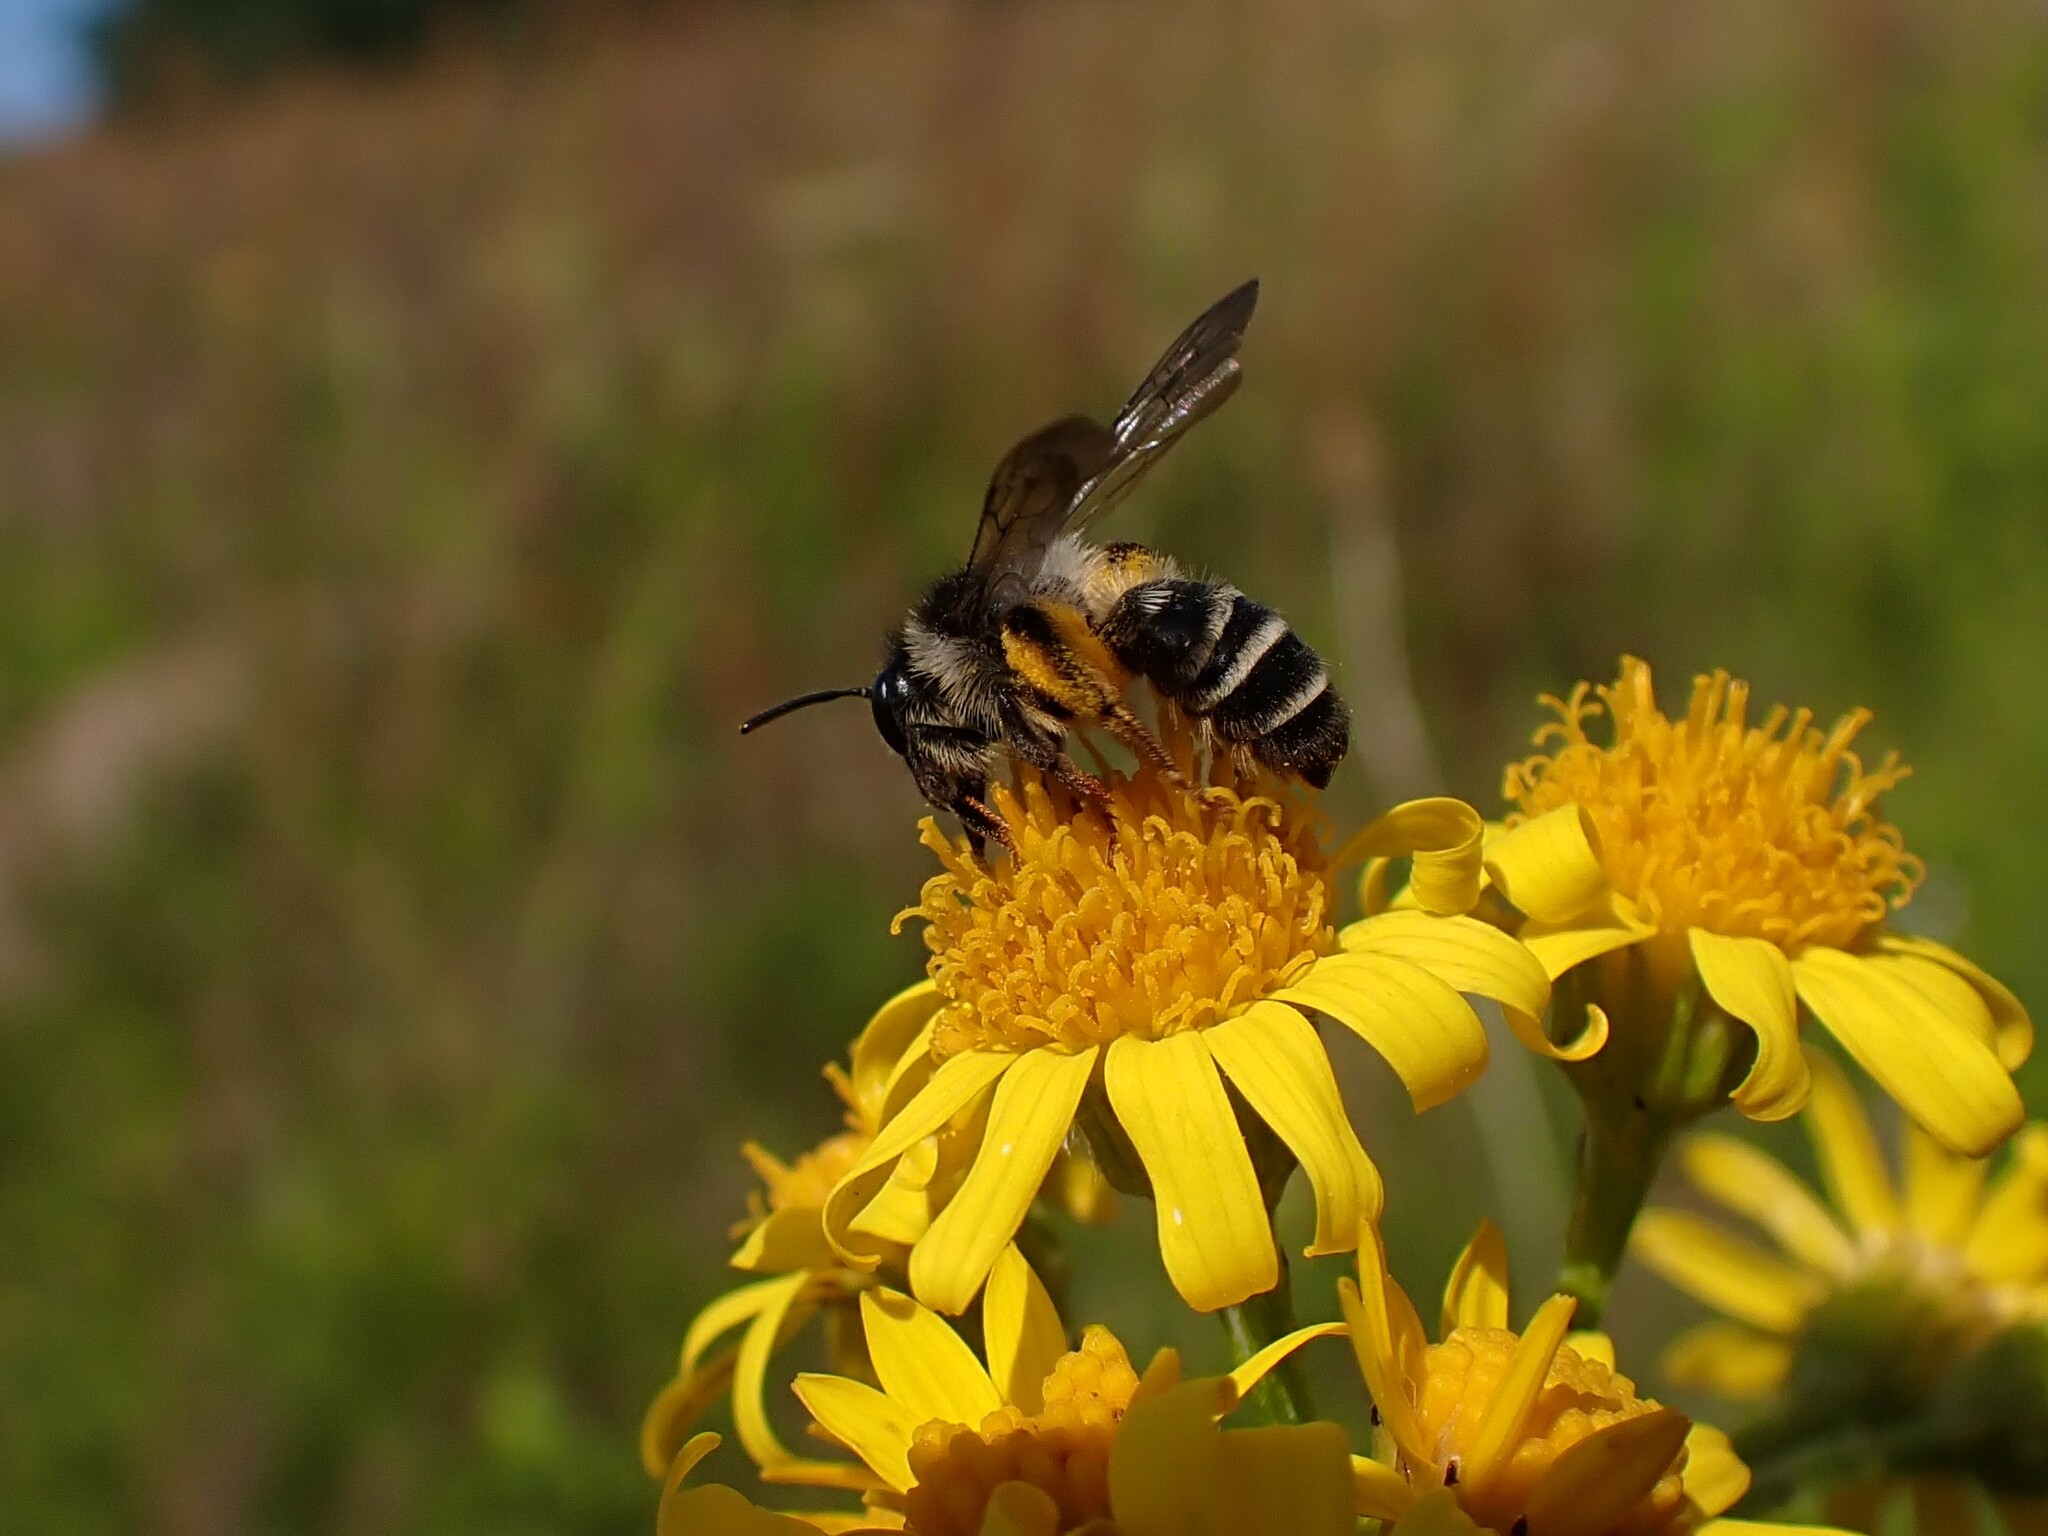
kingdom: Animalia
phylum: Arthropoda
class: Insecta
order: Hymenoptera
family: Andrenidae
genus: Andrena
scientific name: Andrena denticulata
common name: Grey-banded mining bee
